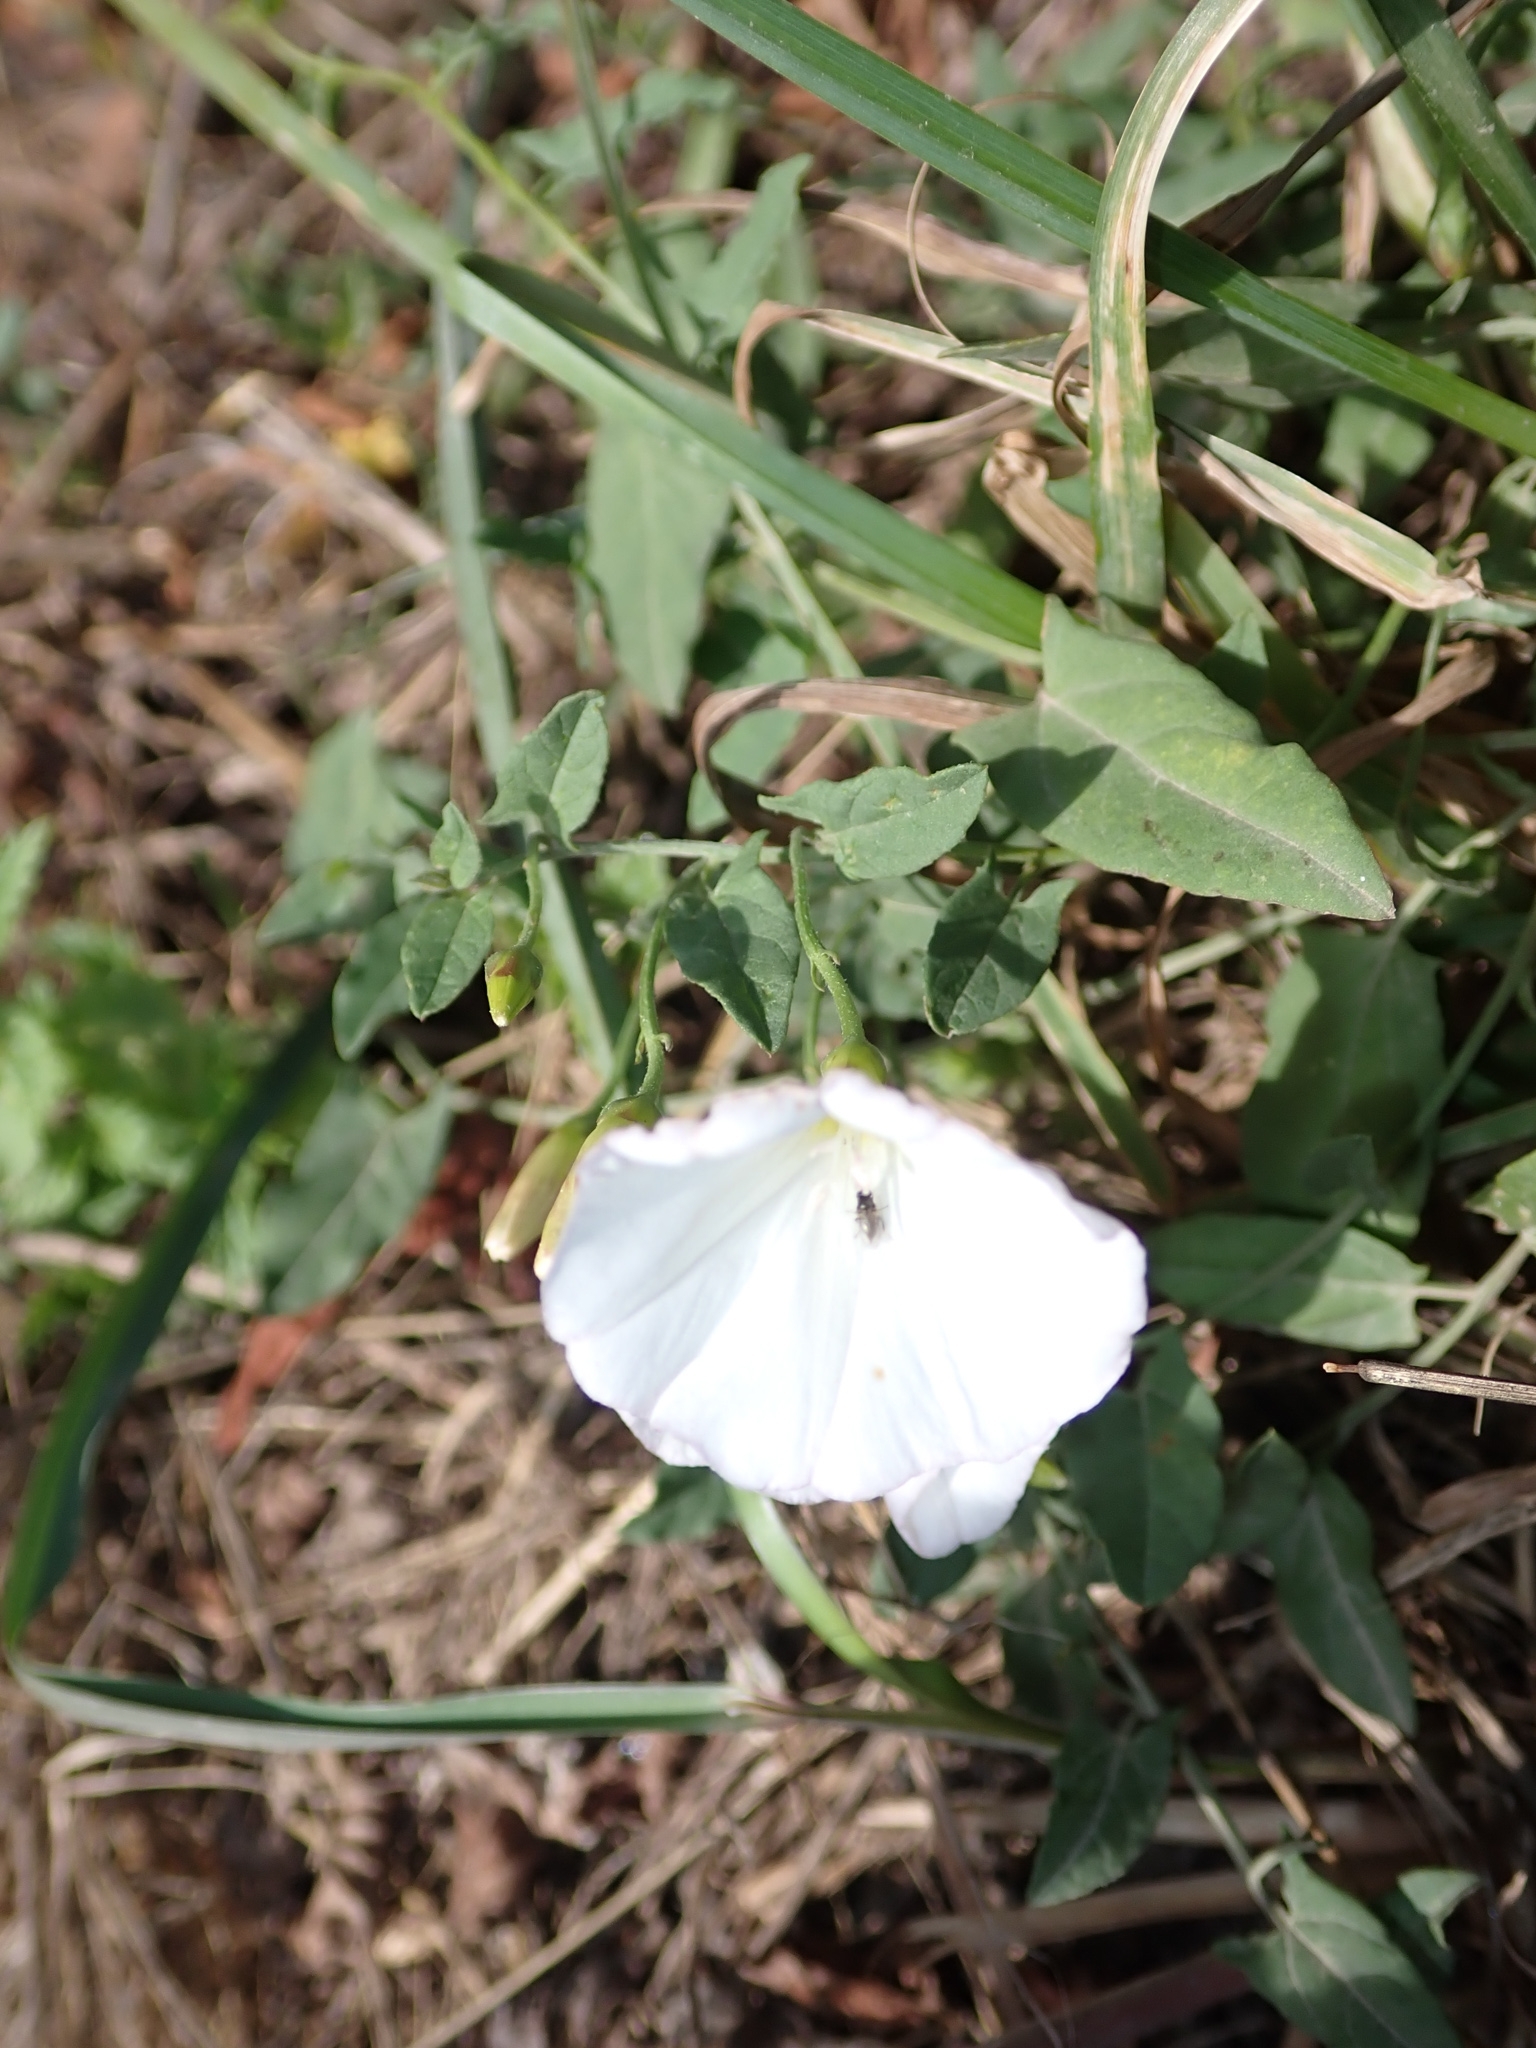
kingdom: Plantae
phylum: Tracheophyta
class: Magnoliopsida
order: Solanales
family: Convolvulaceae
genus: Convolvulus
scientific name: Convolvulus arvensis
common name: Field bindweed
